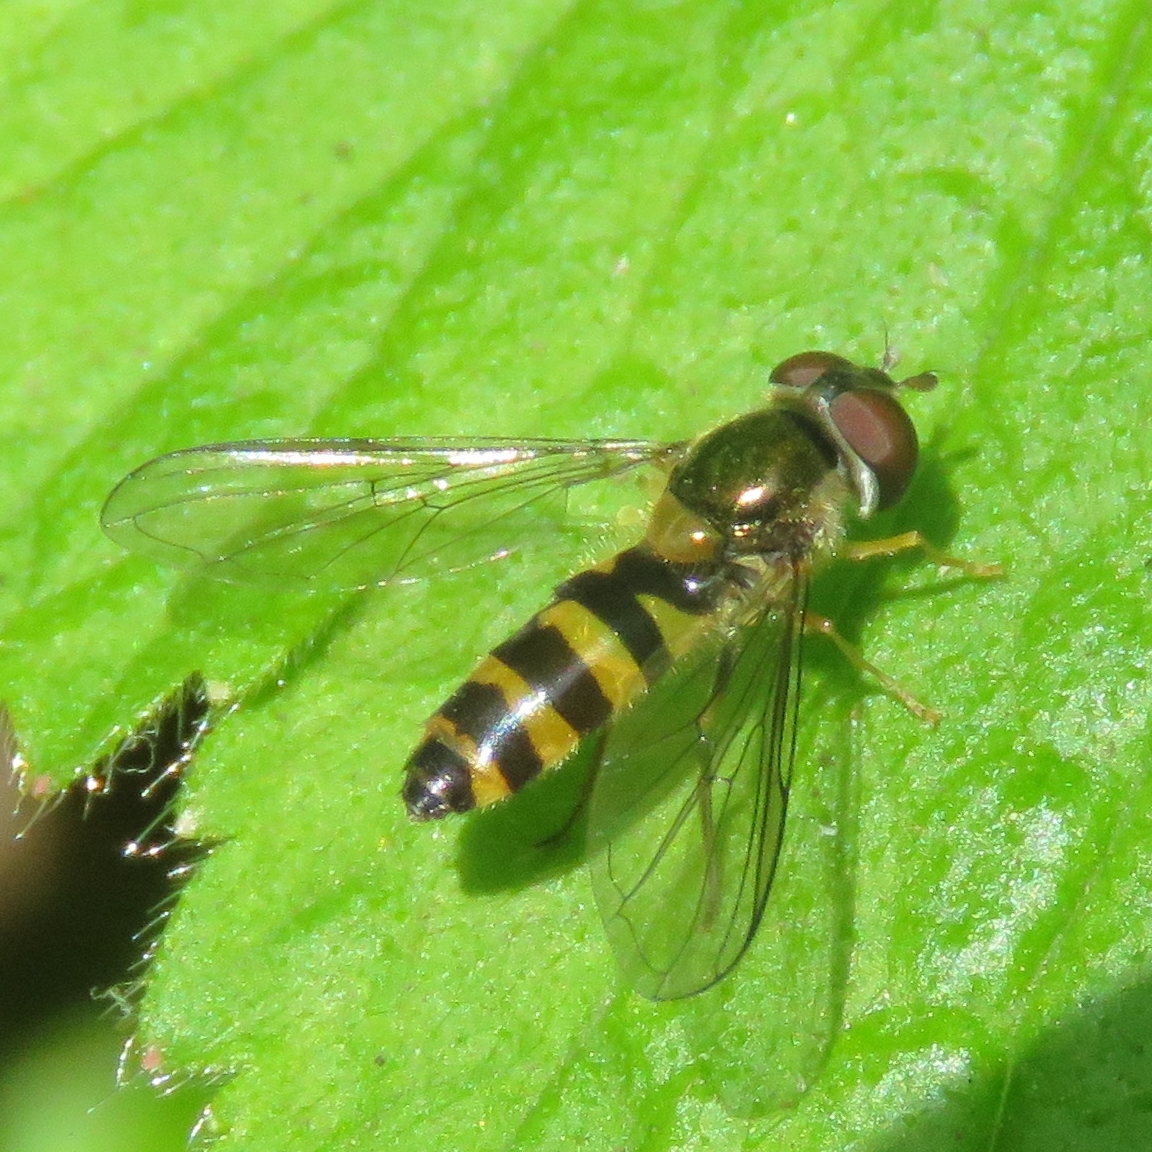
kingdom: Animalia
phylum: Arthropoda
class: Insecta
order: Diptera
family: Syrphidae
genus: Fagisyrphus
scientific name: Fagisyrphus cincta
